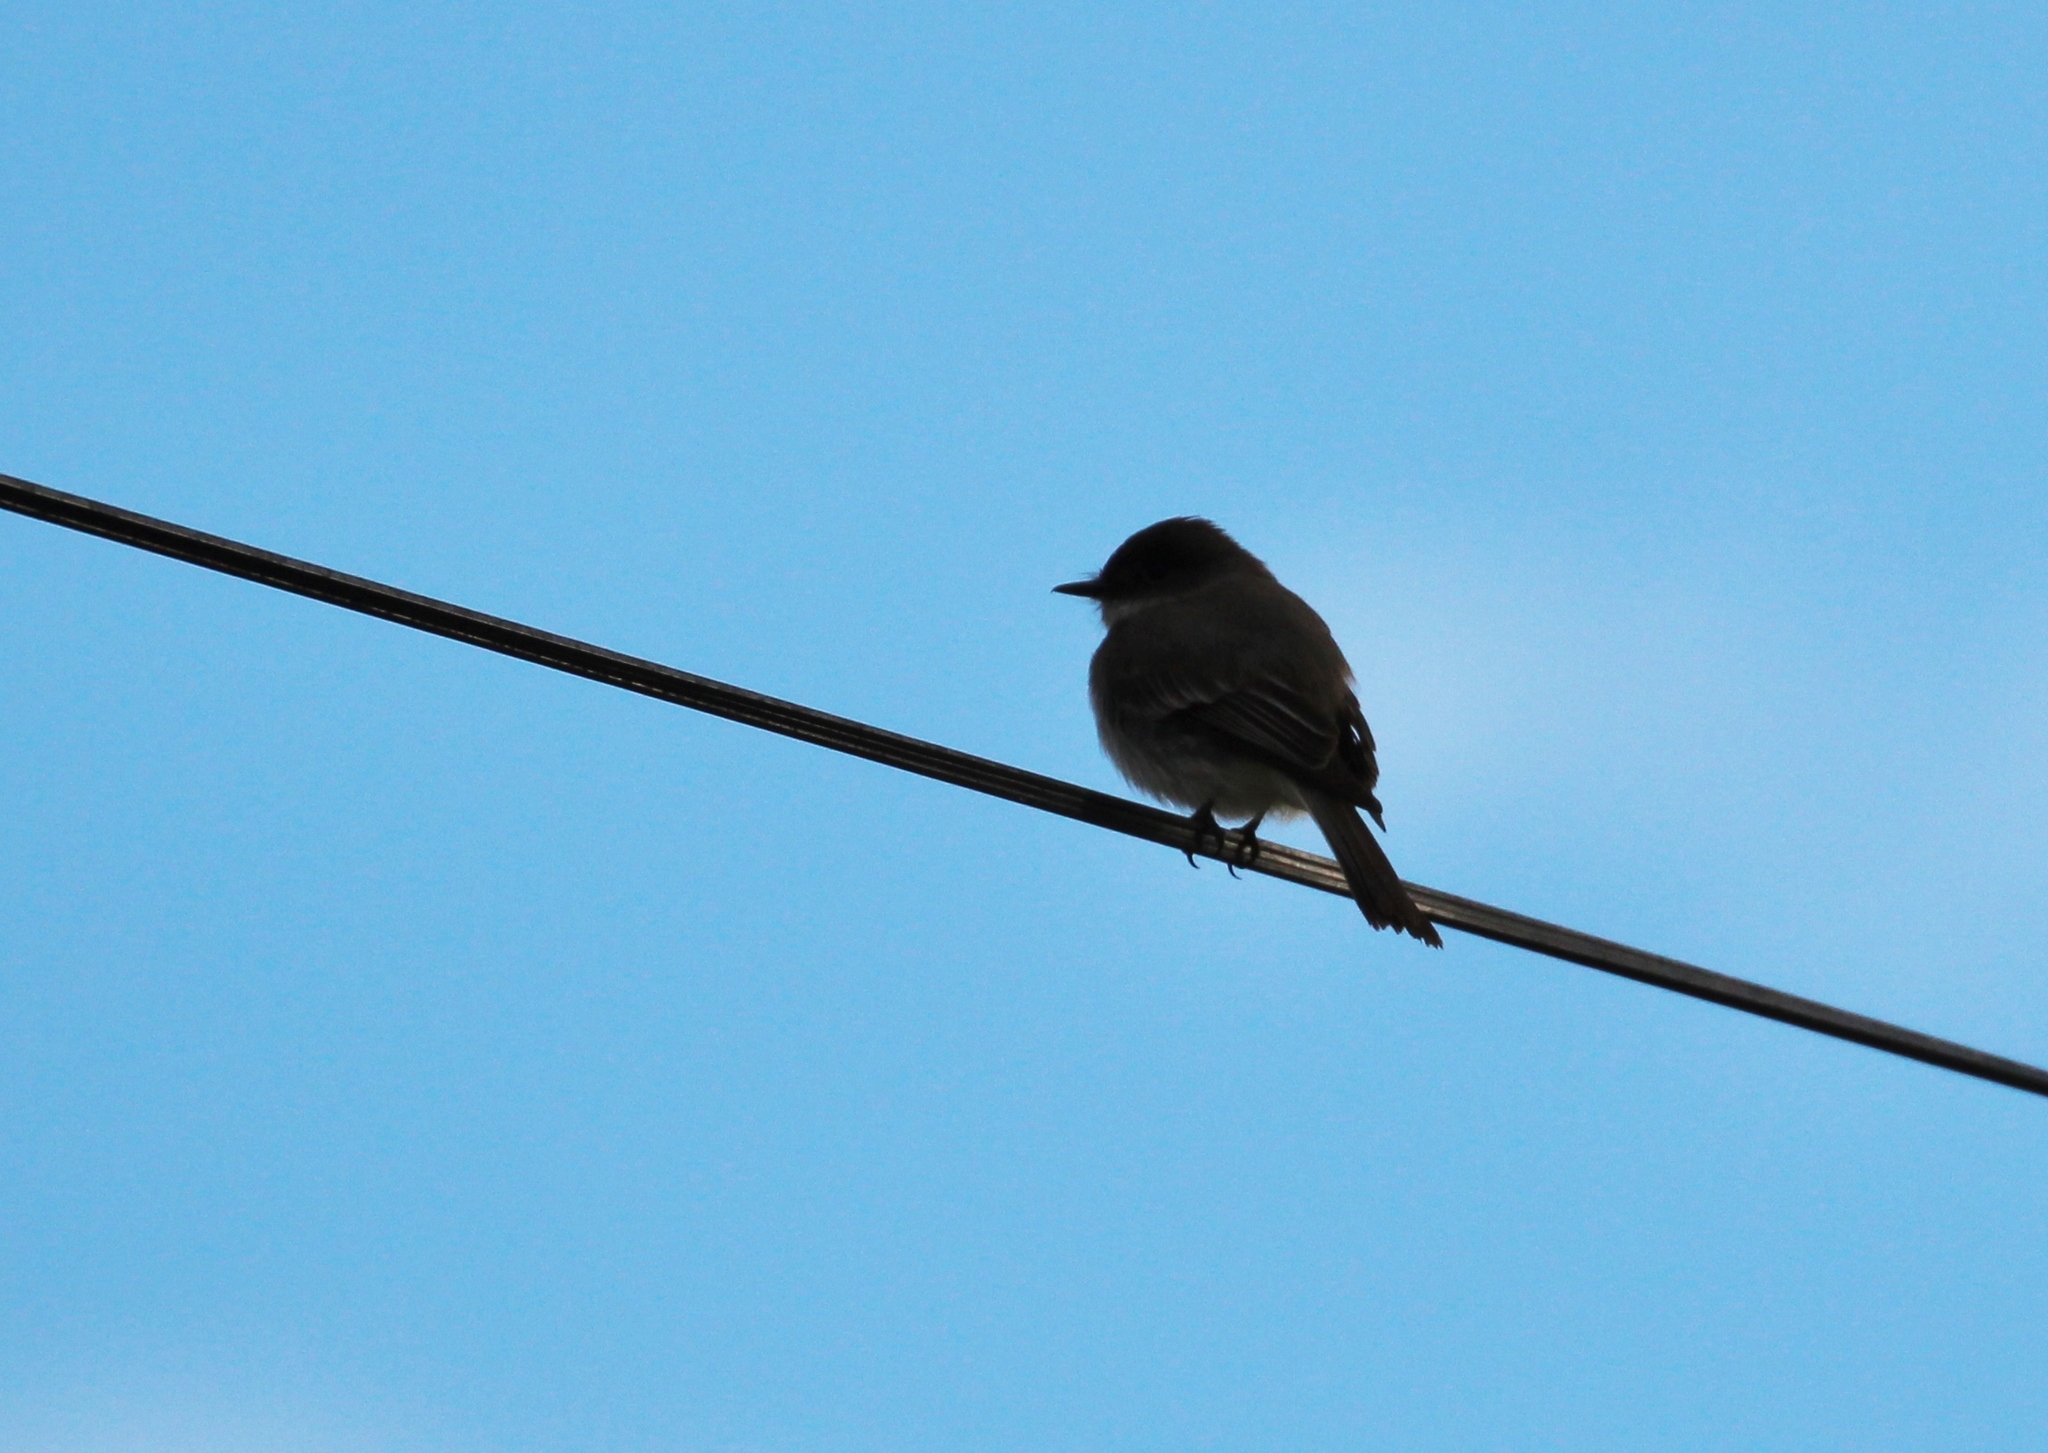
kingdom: Animalia
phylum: Chordata
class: Aves
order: Passeriformes
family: Tyrannidae
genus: Sayornis
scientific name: Sayornis phoebe
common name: Eastern phoebe
